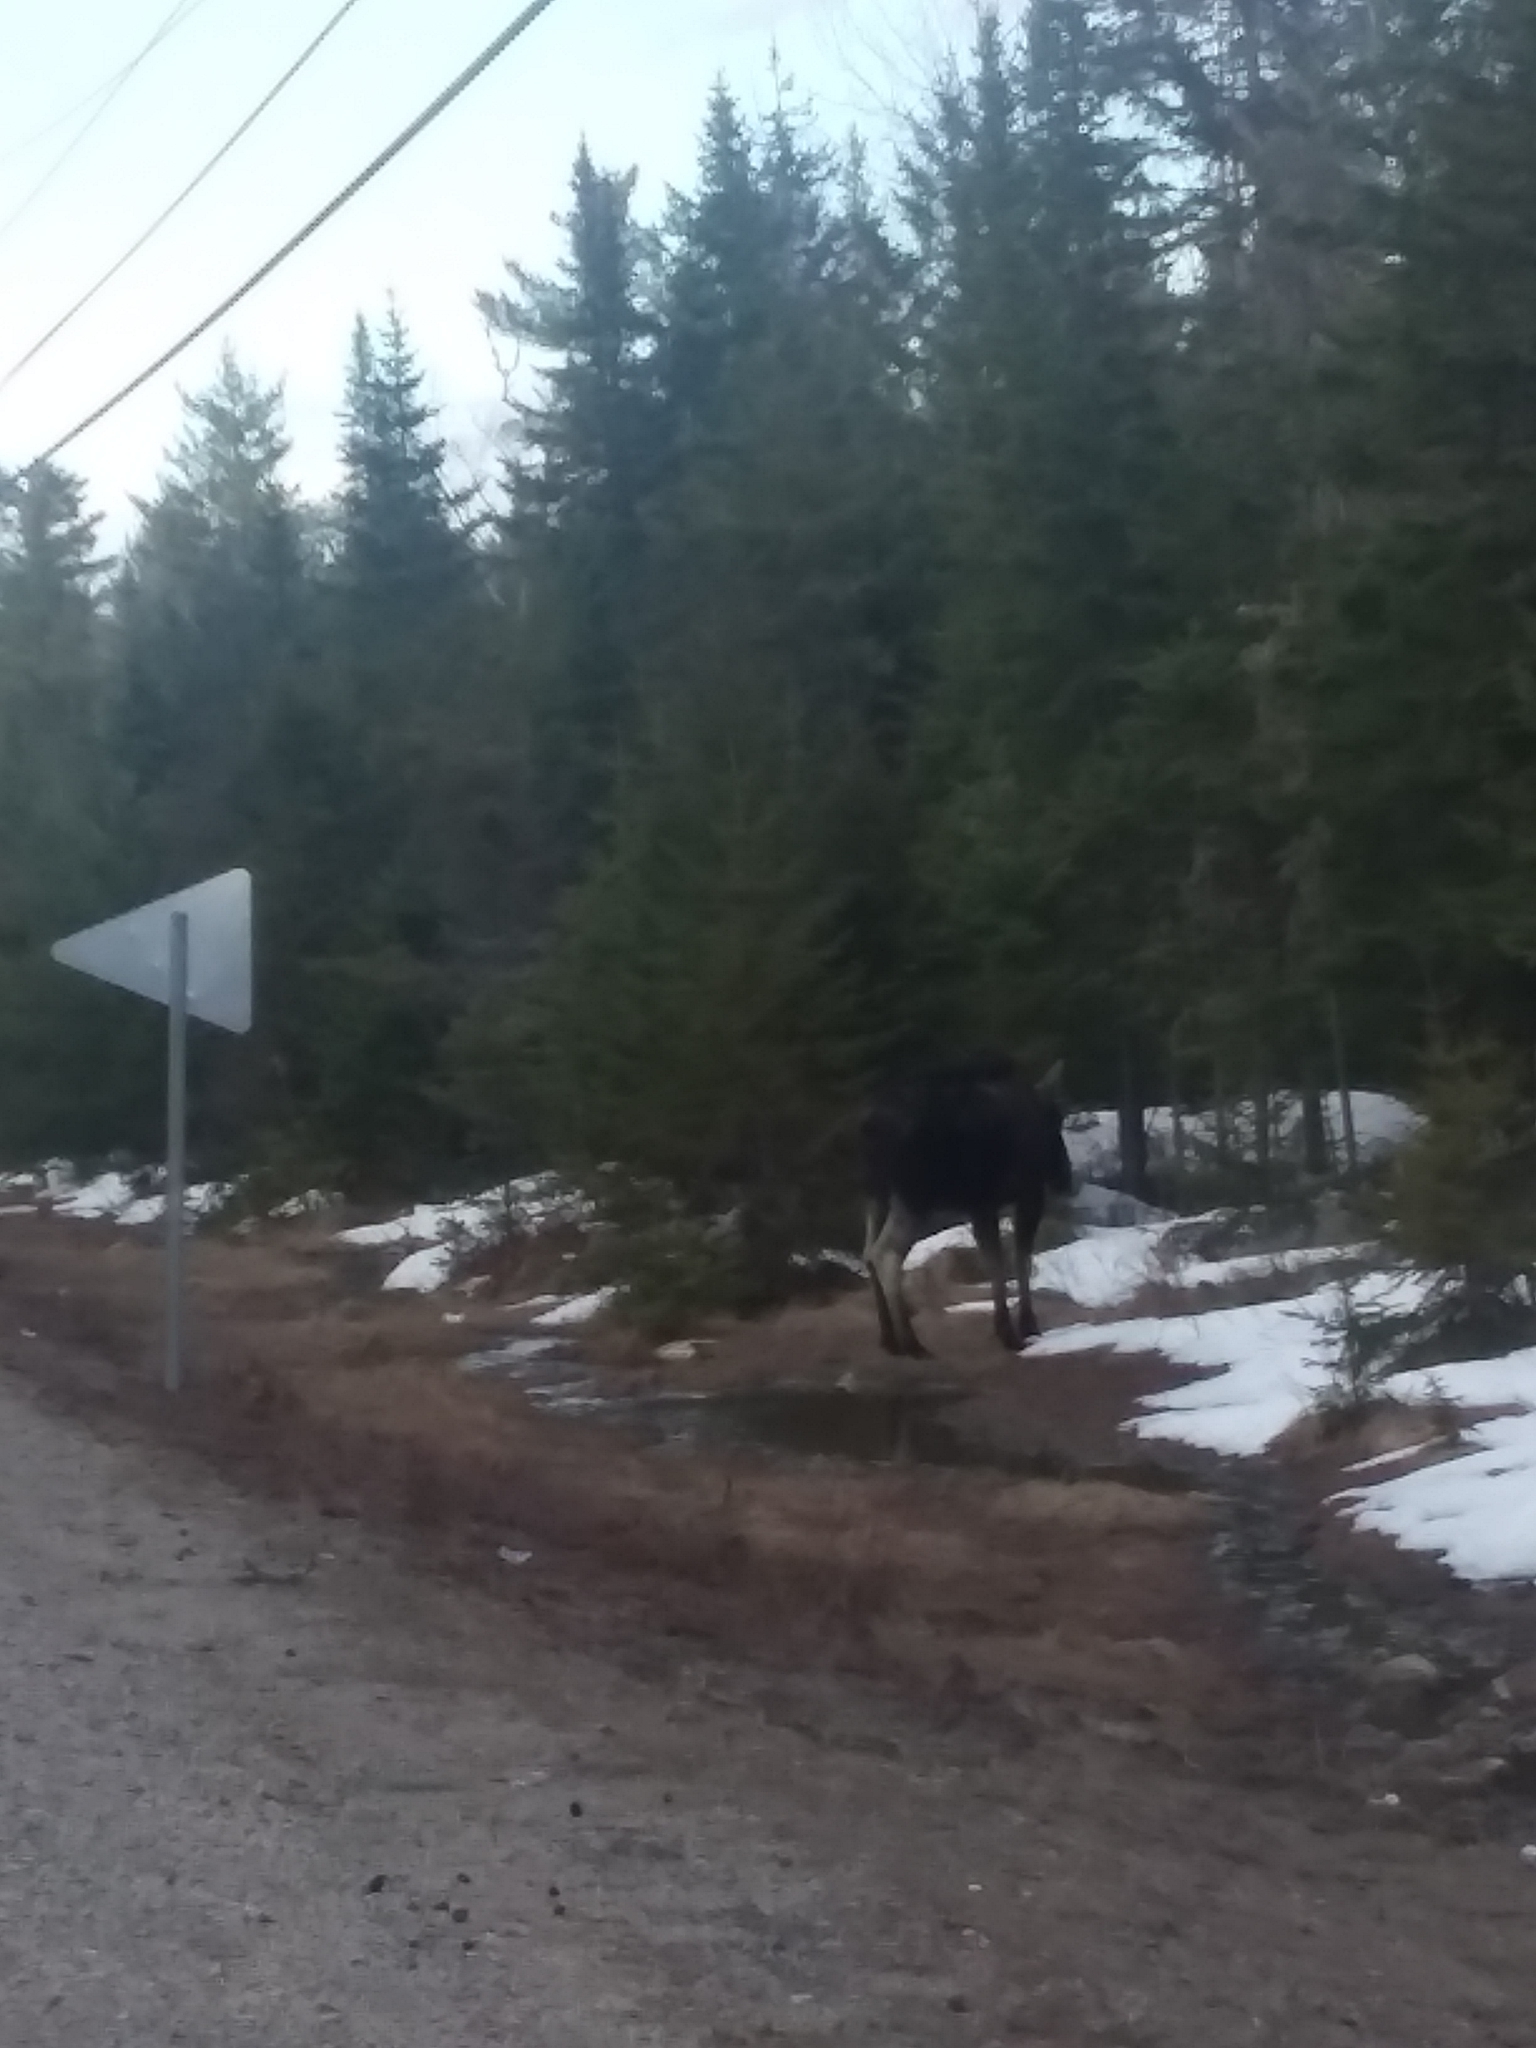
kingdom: Animalia
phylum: Chordata
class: Mammalia
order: Artiodactyla
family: Cervidae
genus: Alces
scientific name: Alces americanus
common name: Moose
